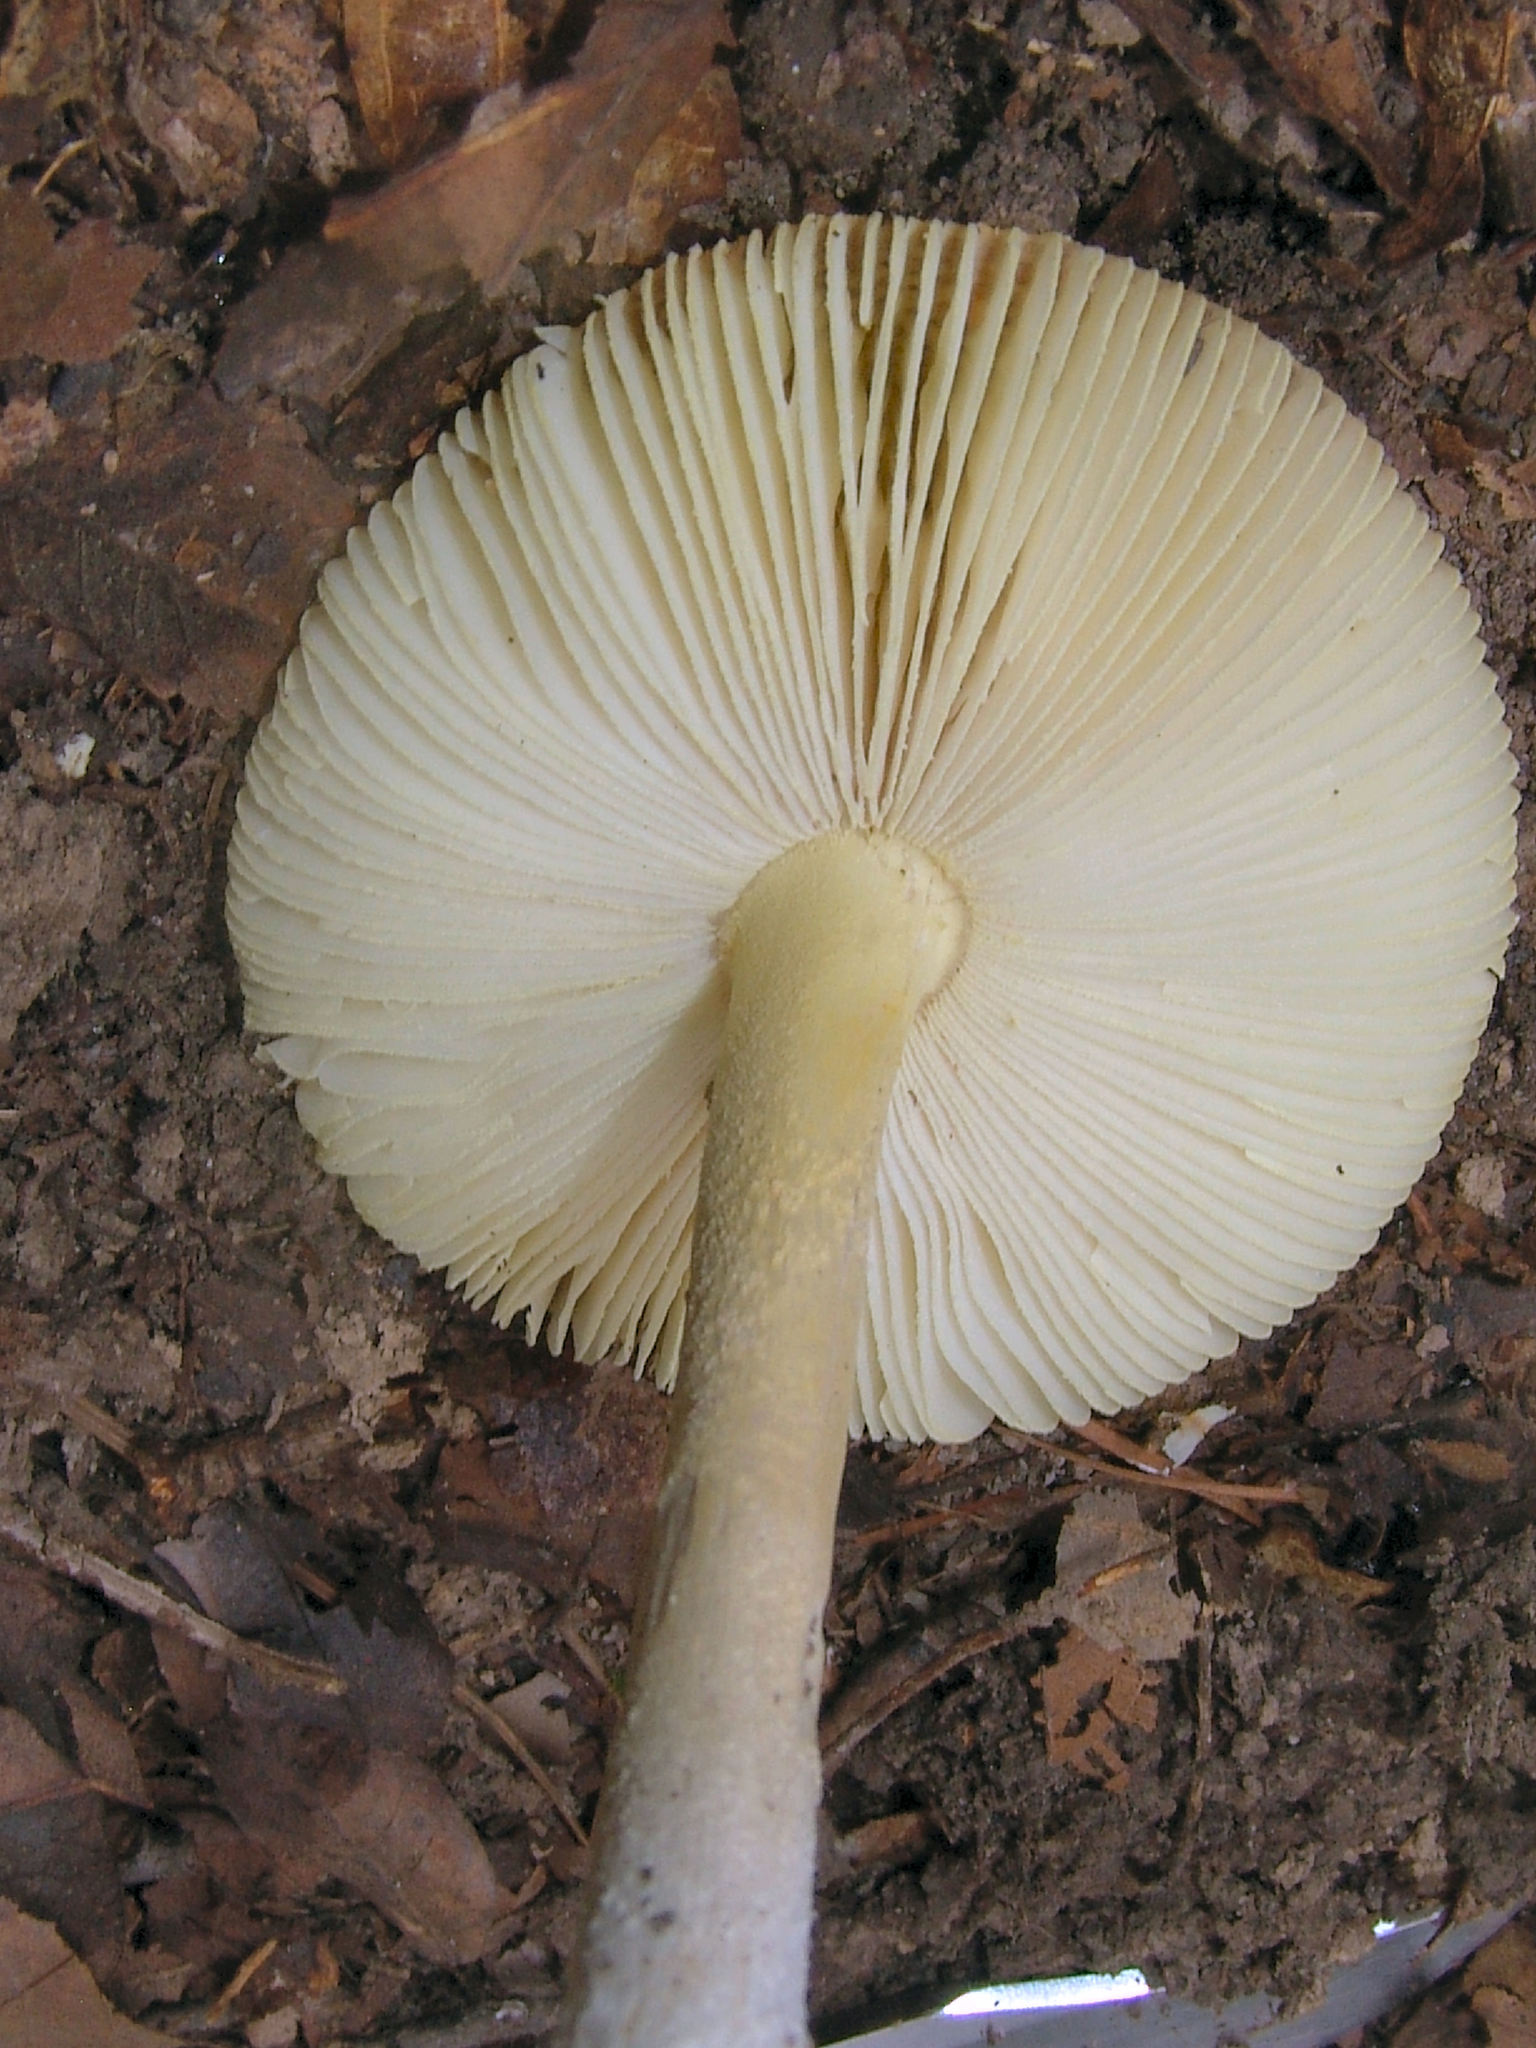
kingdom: Fungi
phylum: Basidiomycota
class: Agaricomycetes
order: Agaricales
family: Amanitaceae
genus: Amanita
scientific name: Amanita parcivolvata
